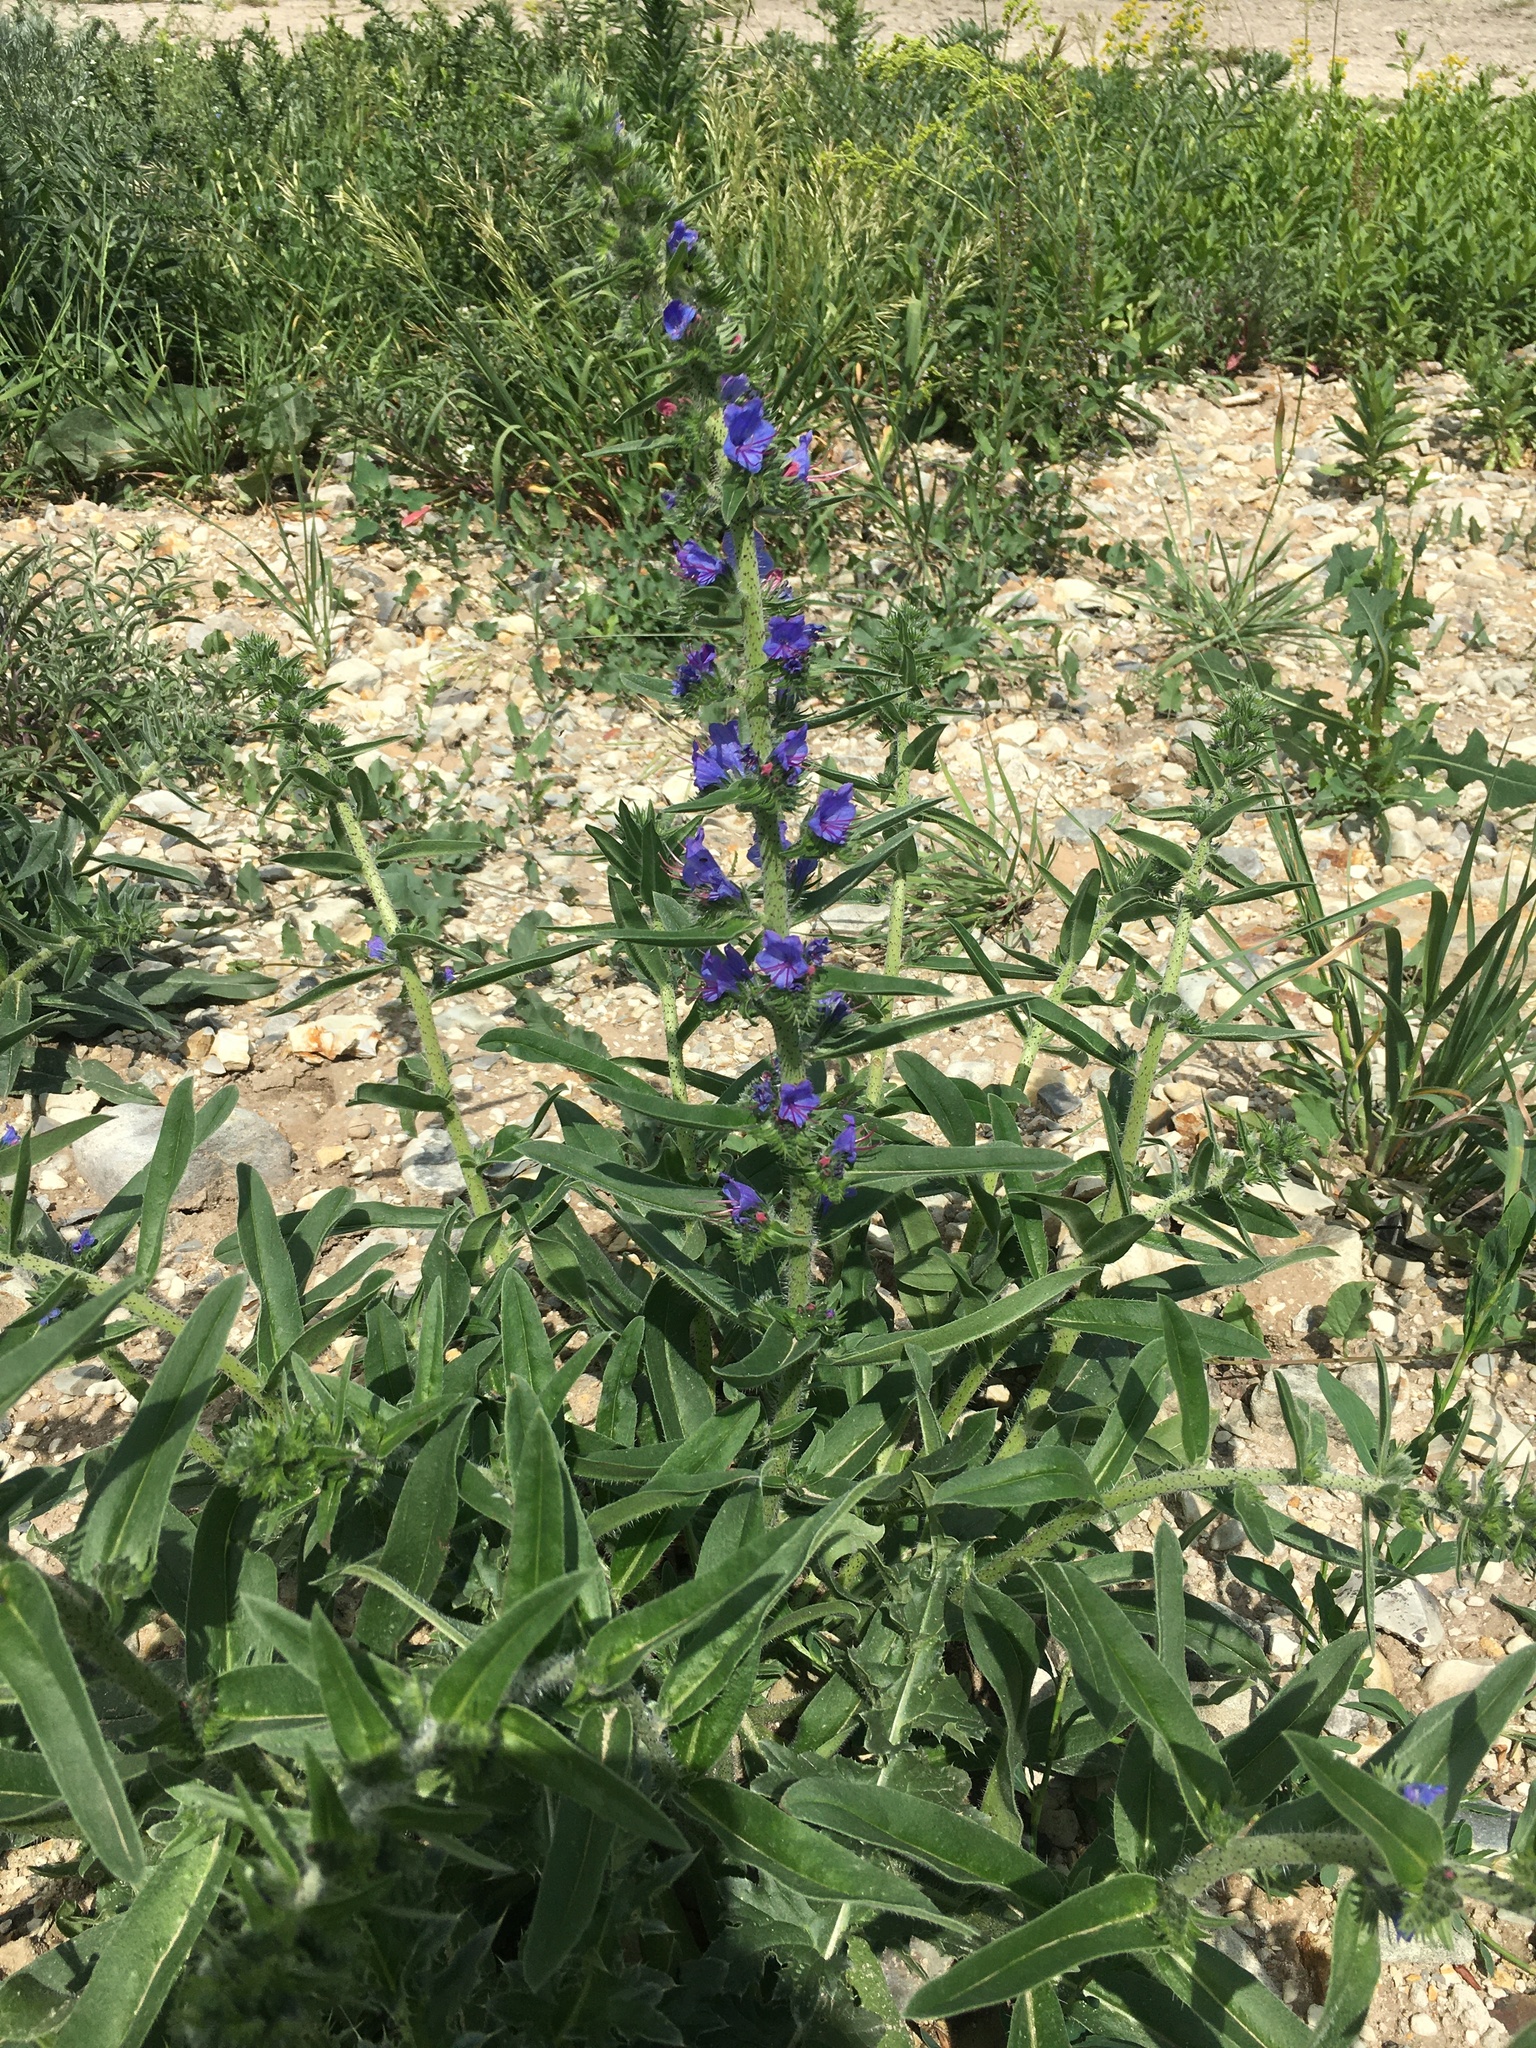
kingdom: Plantae
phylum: Tracheophyta
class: Magnoliopsida
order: Boraginales
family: Boraginaceae
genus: Echium
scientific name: Echium vulgare
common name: Common viper's bugloss
